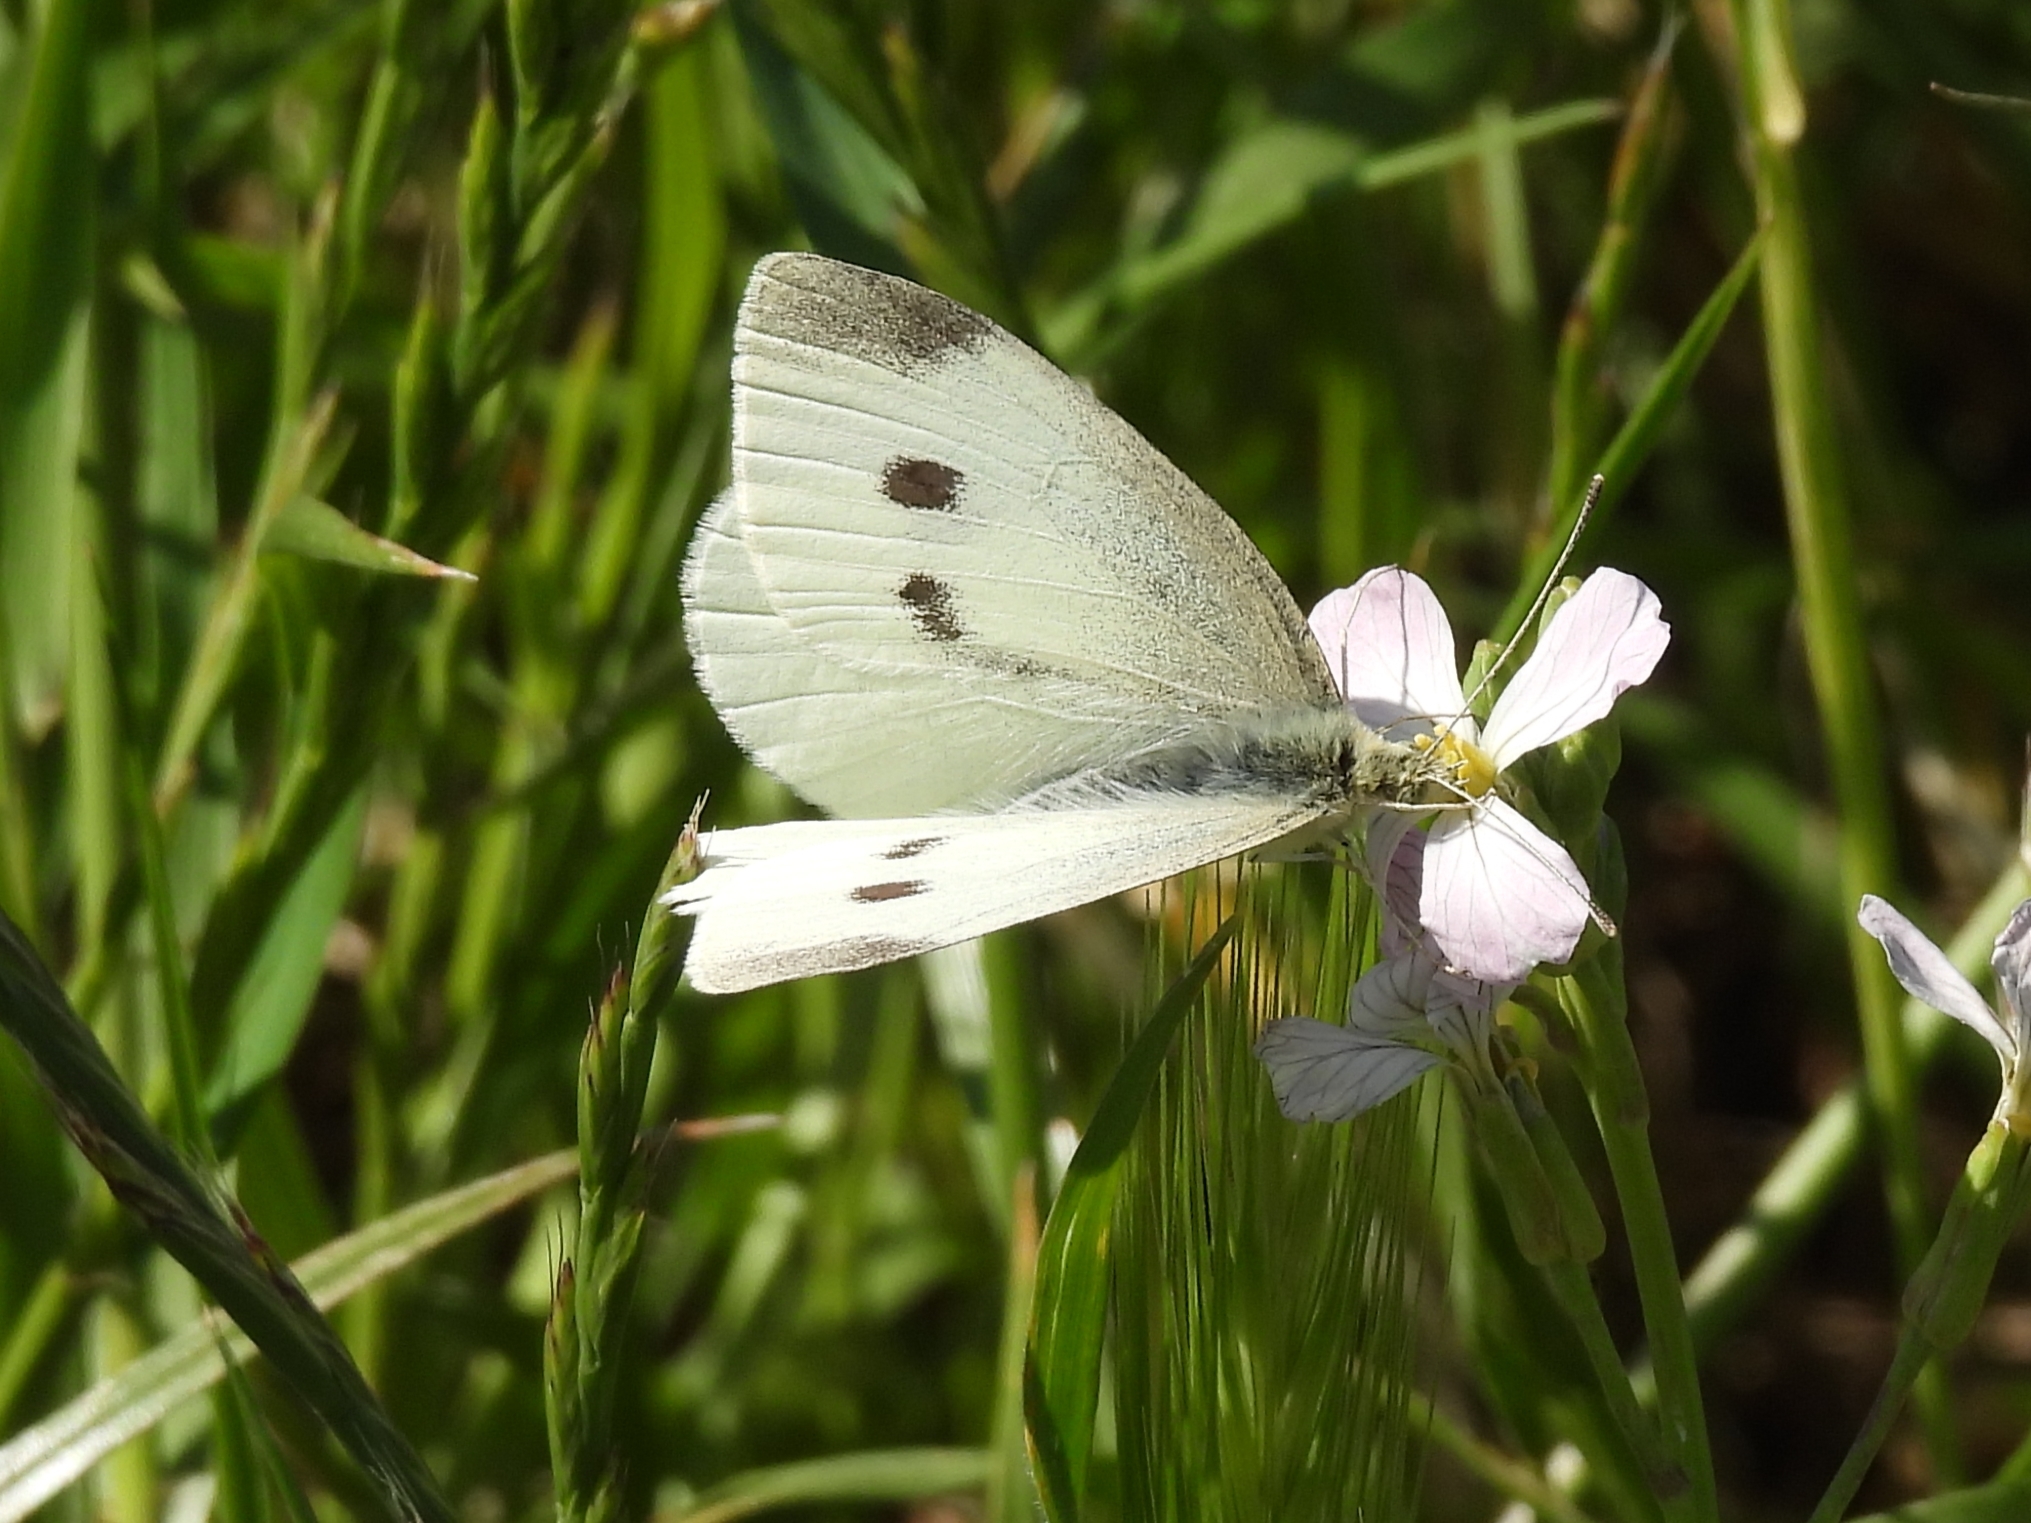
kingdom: Animalia
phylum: Arthropoda
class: Insecta
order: Lepidoptera
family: Pieridae
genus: Pieris
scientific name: Pieris rapae
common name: Small white
